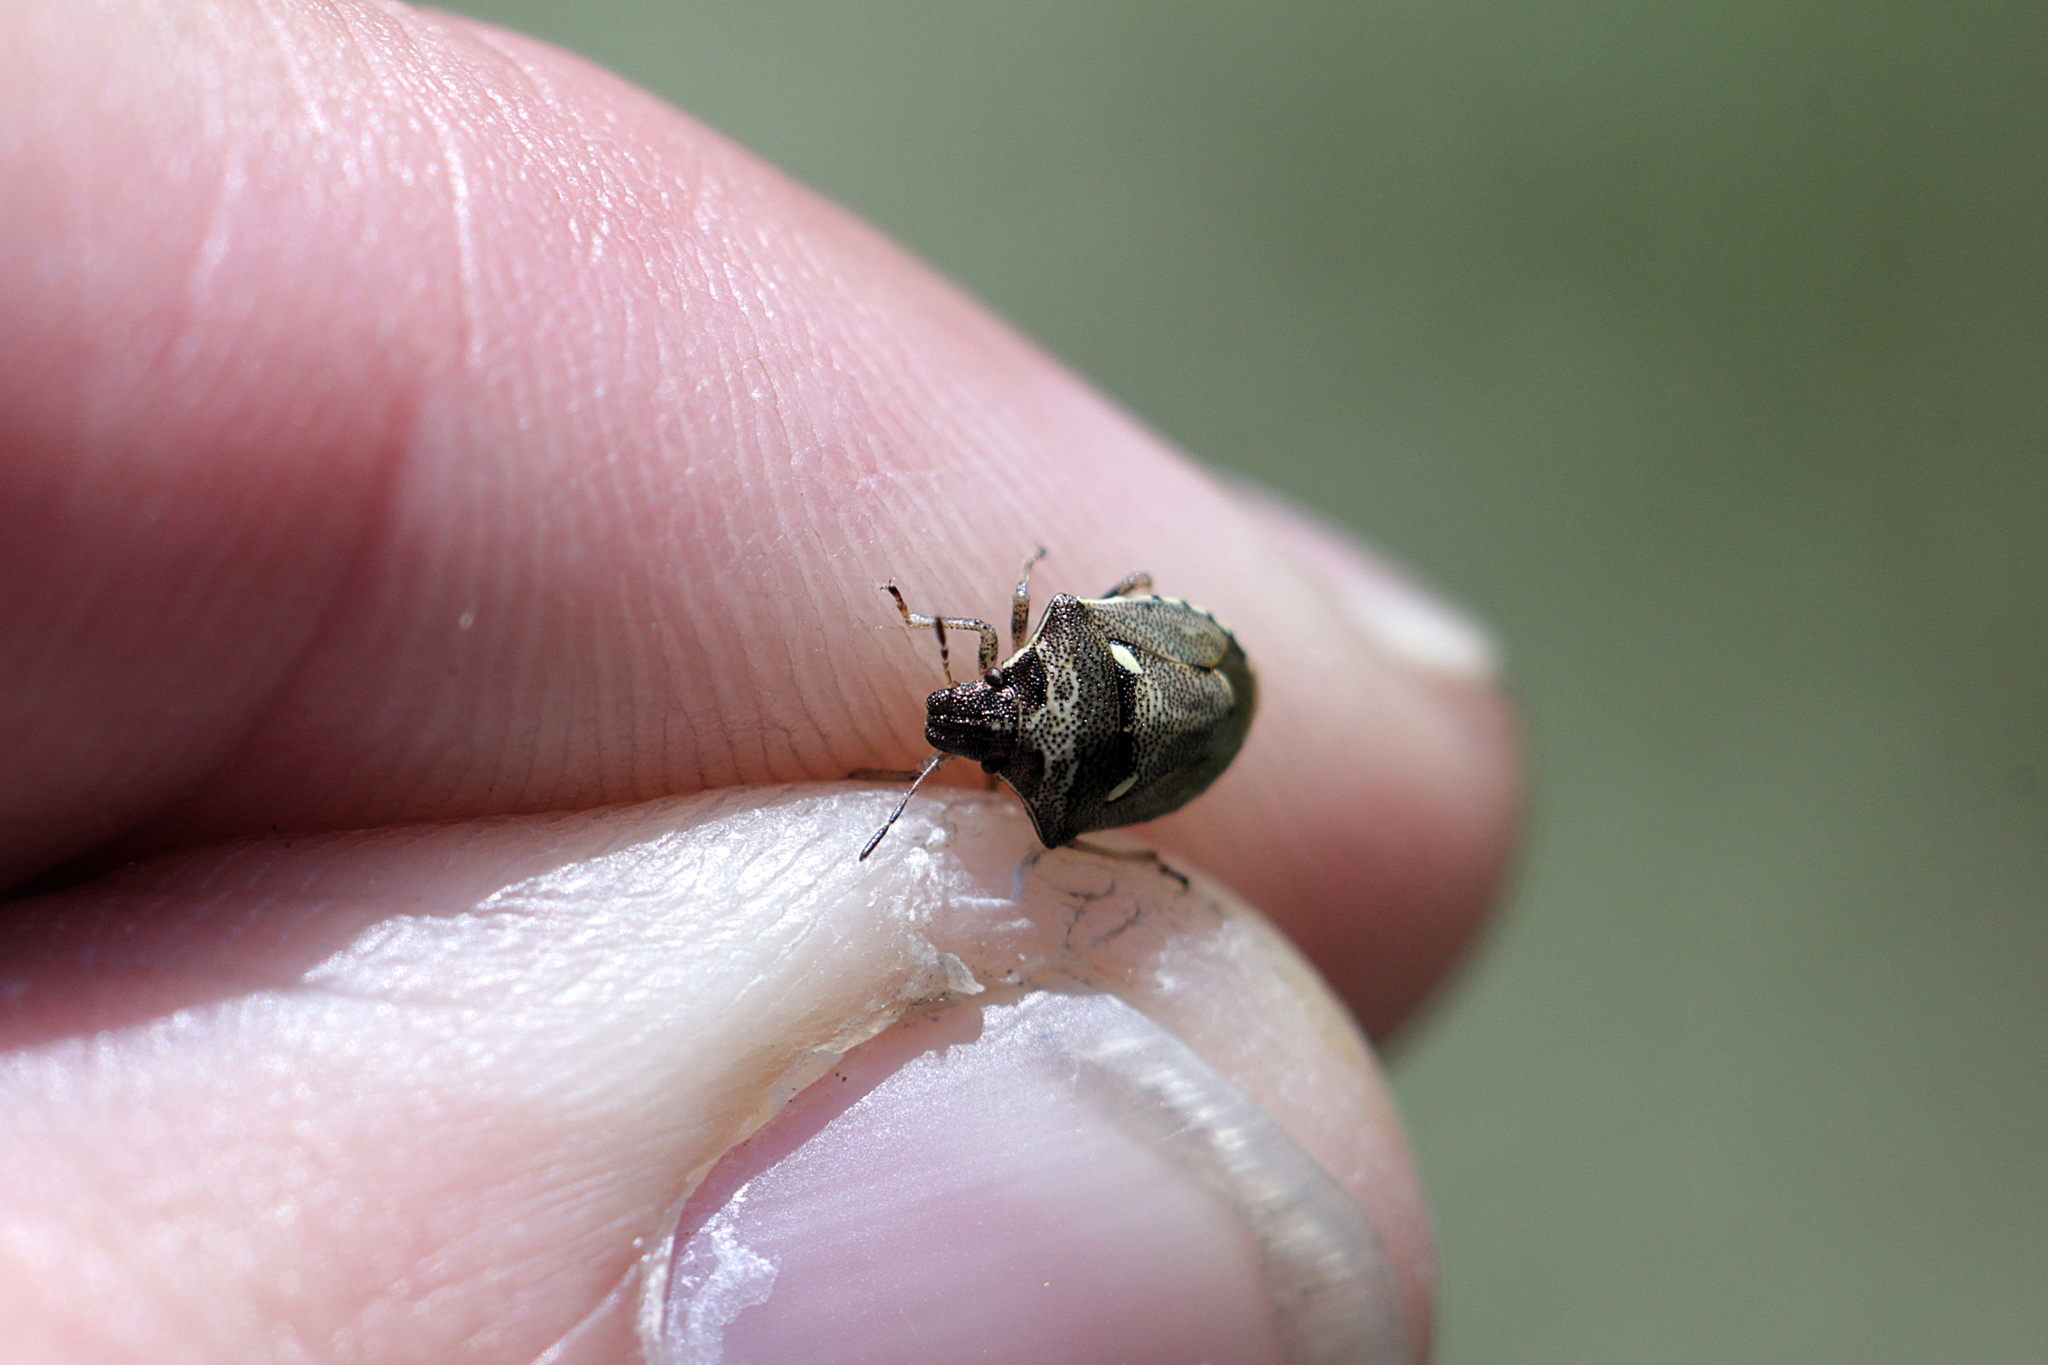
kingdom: Animalia
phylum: Arthropoda
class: Insecta
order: Hemiptera
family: Pentatomidae
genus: Eysarcoris
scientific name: Eysarcoris aeneus
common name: New forest shieldbug
